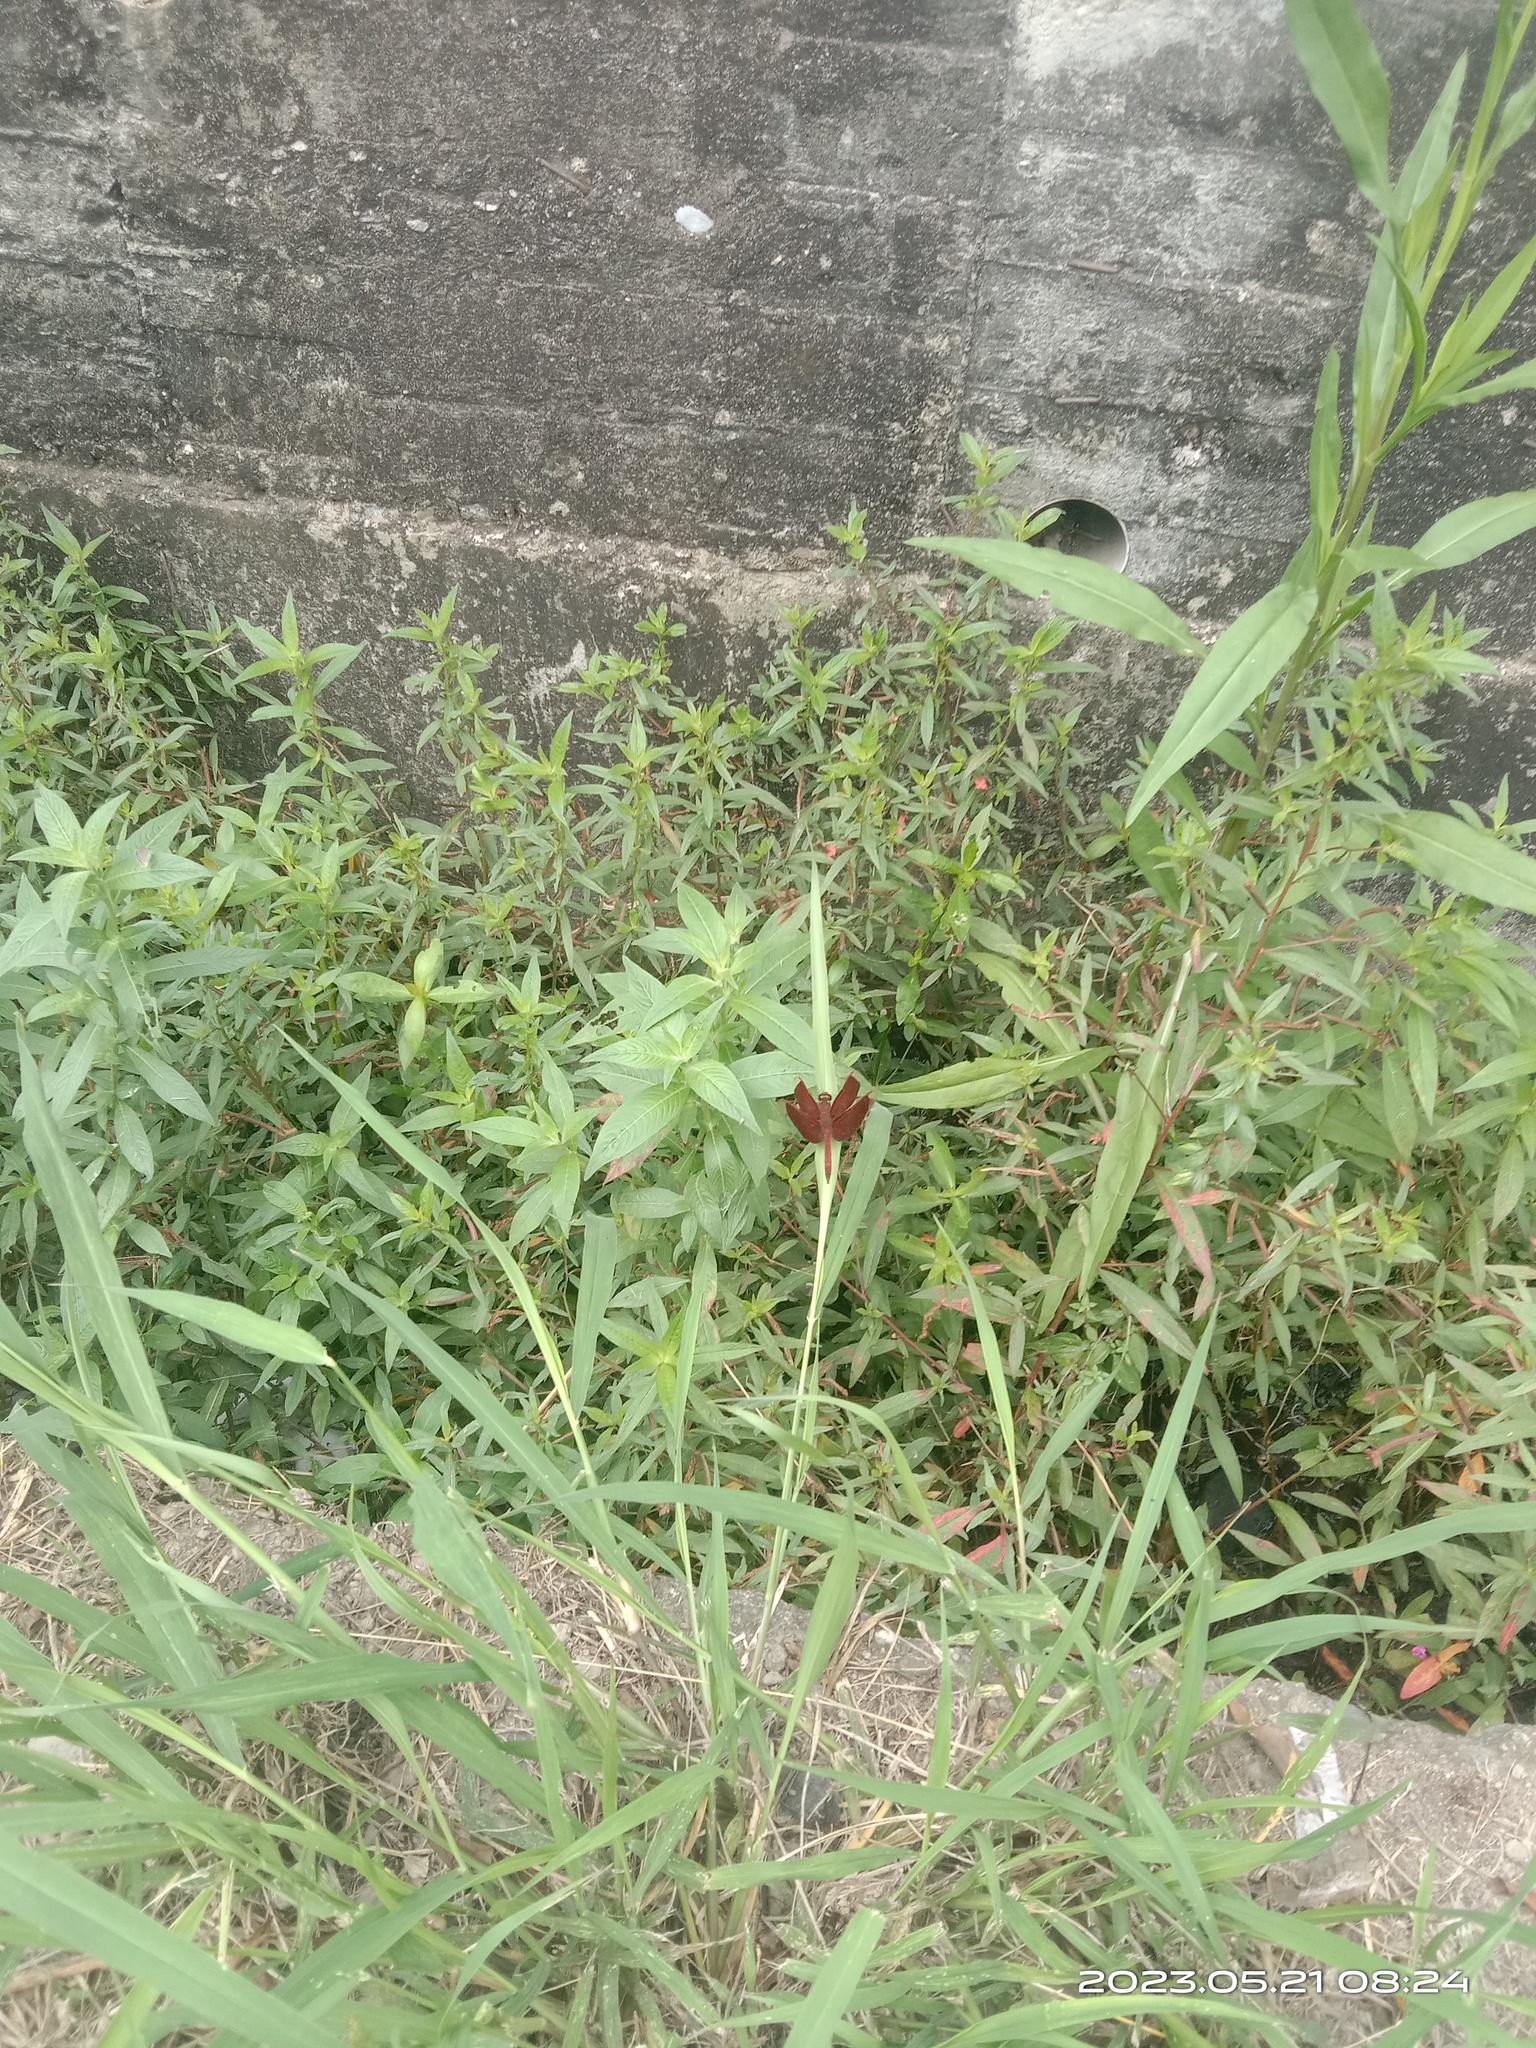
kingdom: Animalia
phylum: Arthropoda
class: Insecta
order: Odonata
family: Libellulidae
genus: Neurothemis
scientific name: Neurothemis taiwanensis
